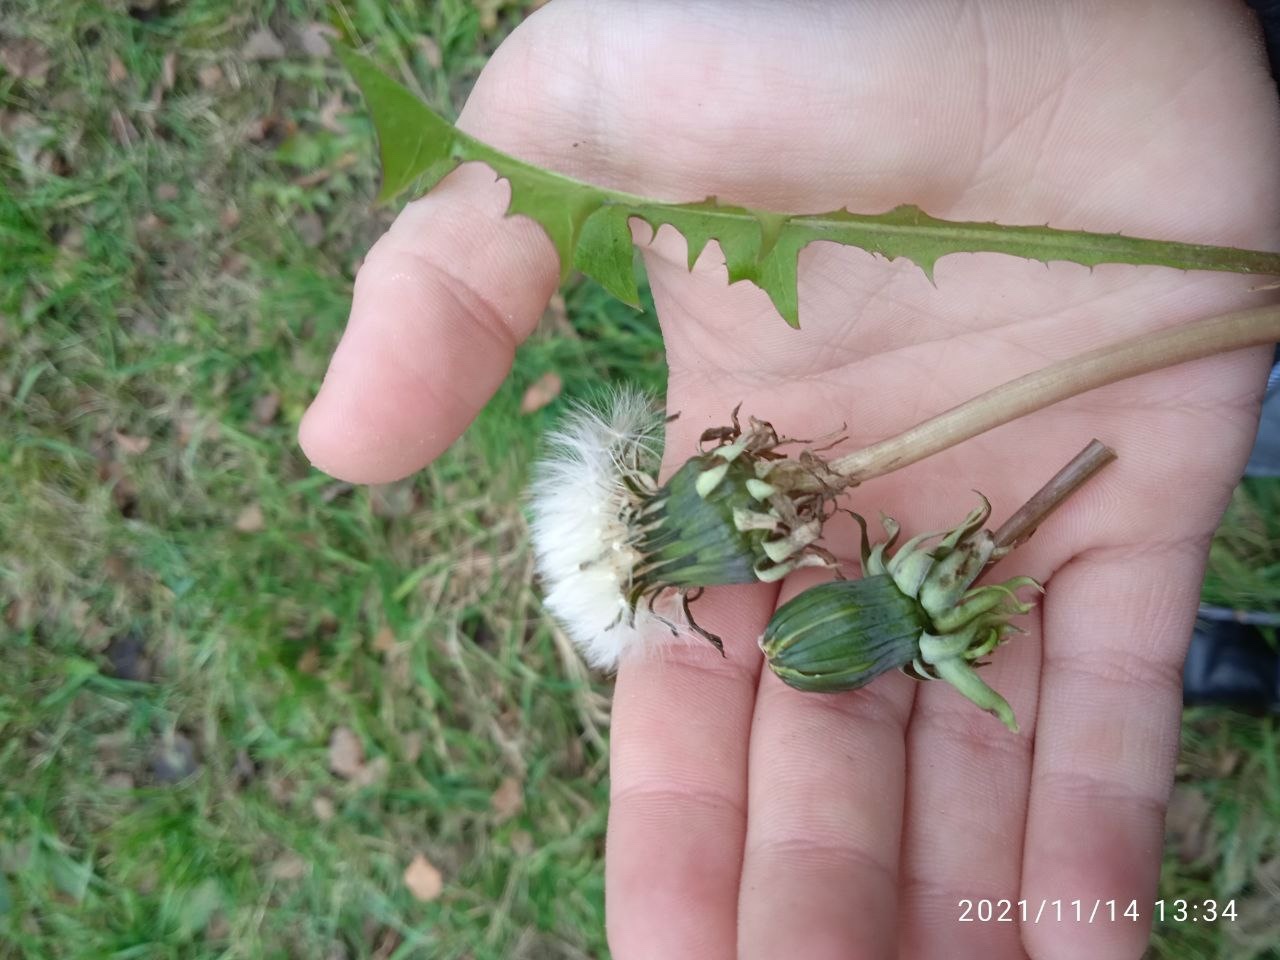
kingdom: Plantae
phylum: Tracheophyta
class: Magnoliopsida
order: Asterales
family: Asteraceae
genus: Taraxacum
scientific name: Taraxacum officinale
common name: Common dandelion
